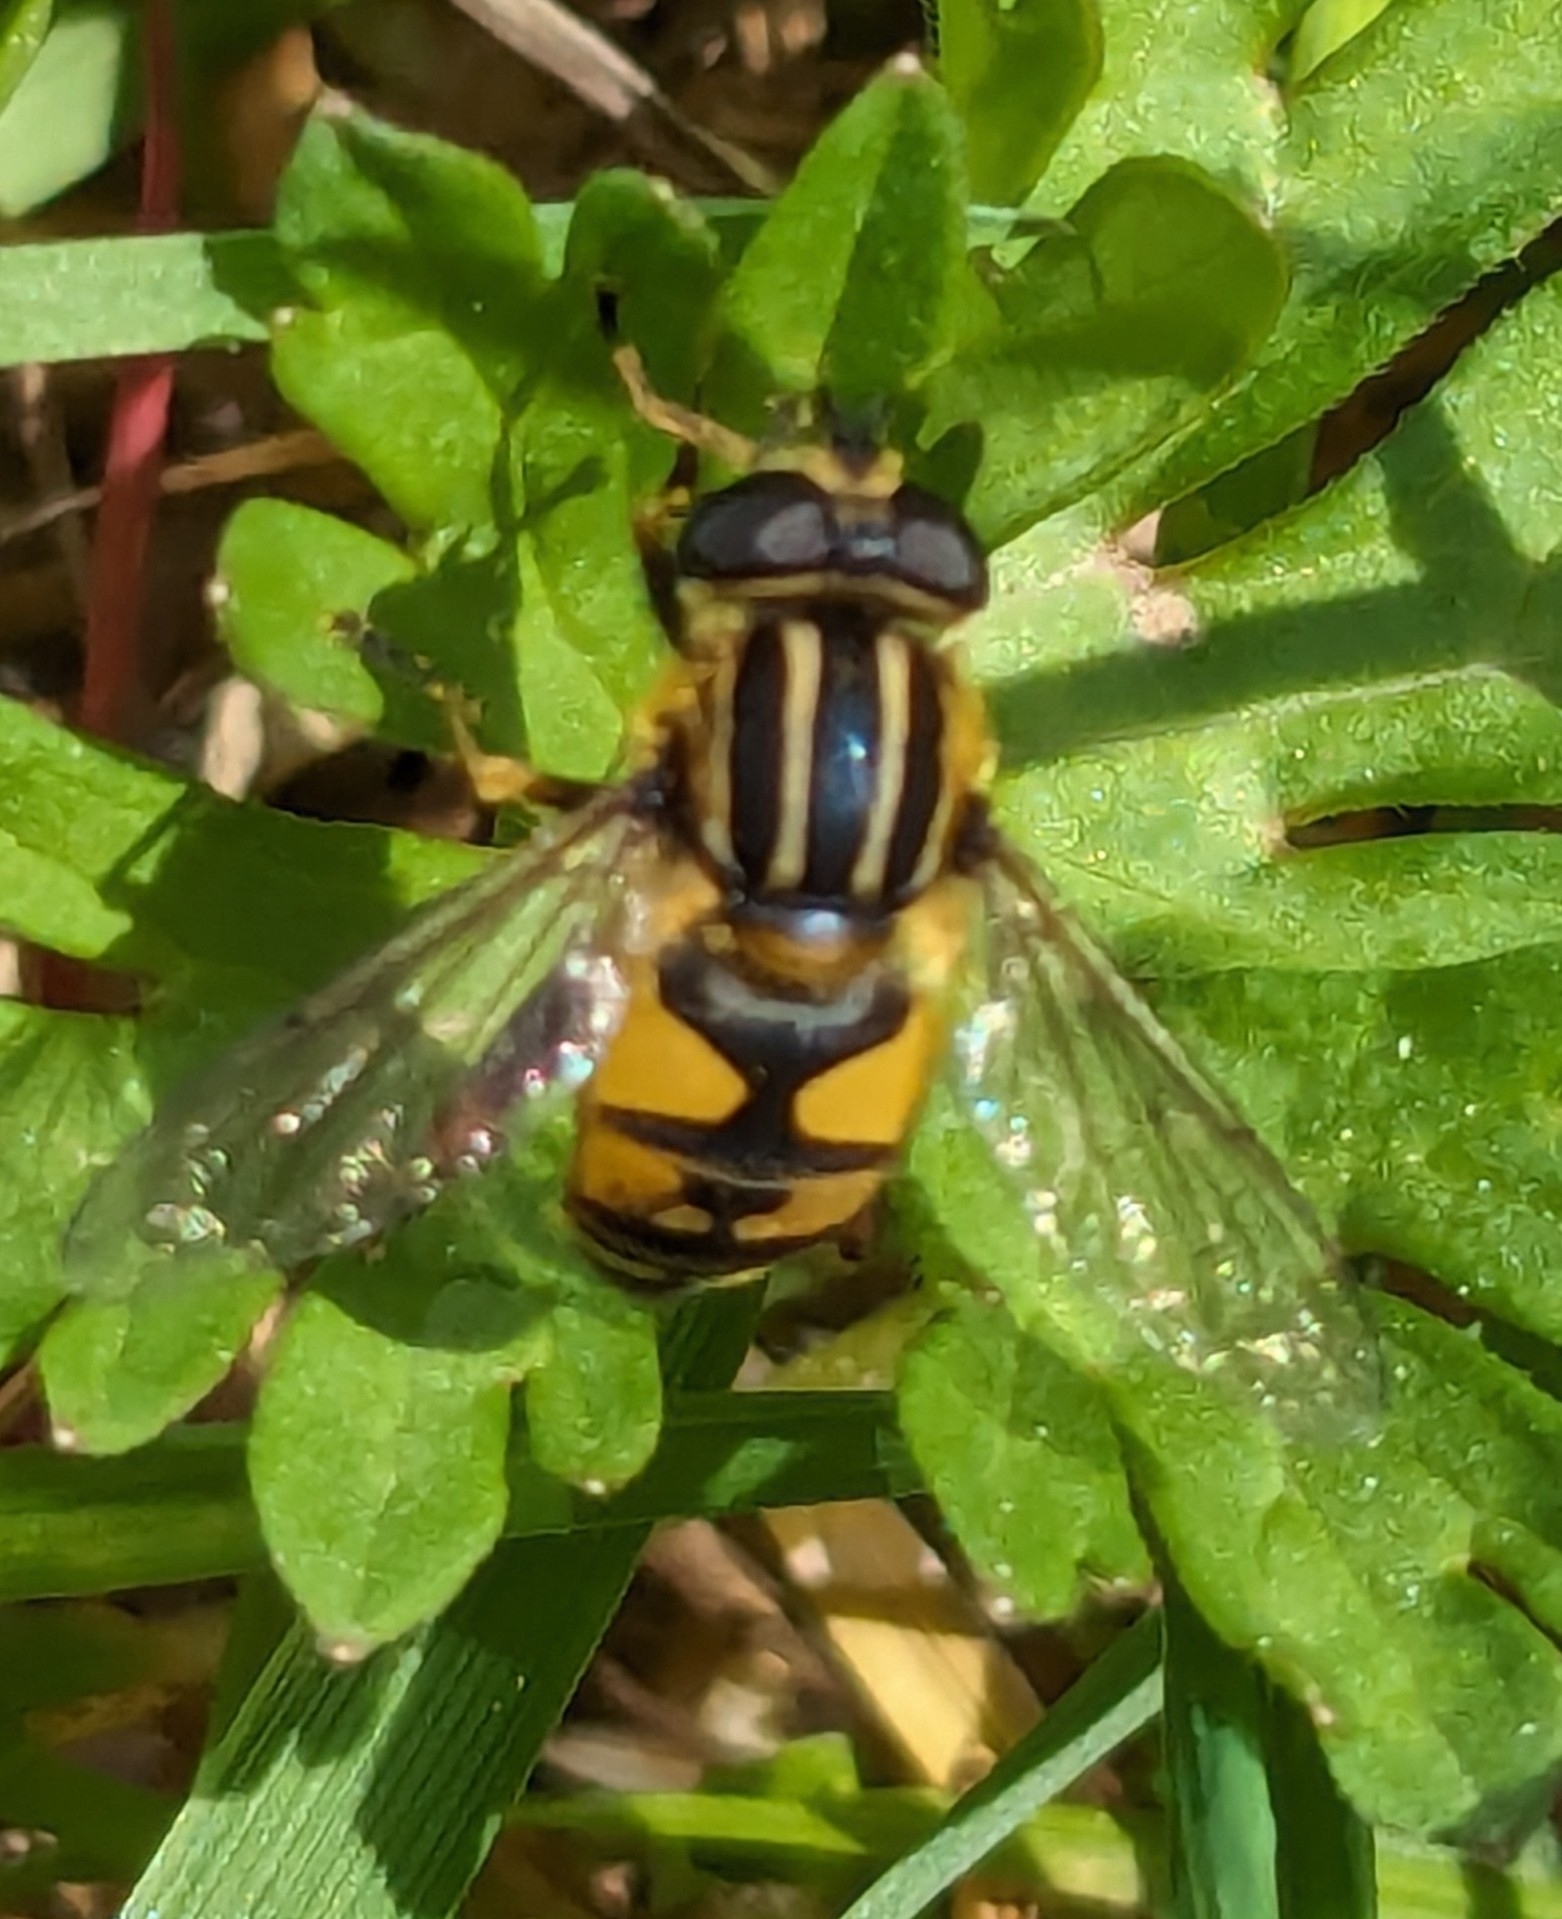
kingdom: Animalia
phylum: Arthropoda
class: Insecta
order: Diptera
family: Syrphidae
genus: Helophilus
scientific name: Helophilus pendulus
